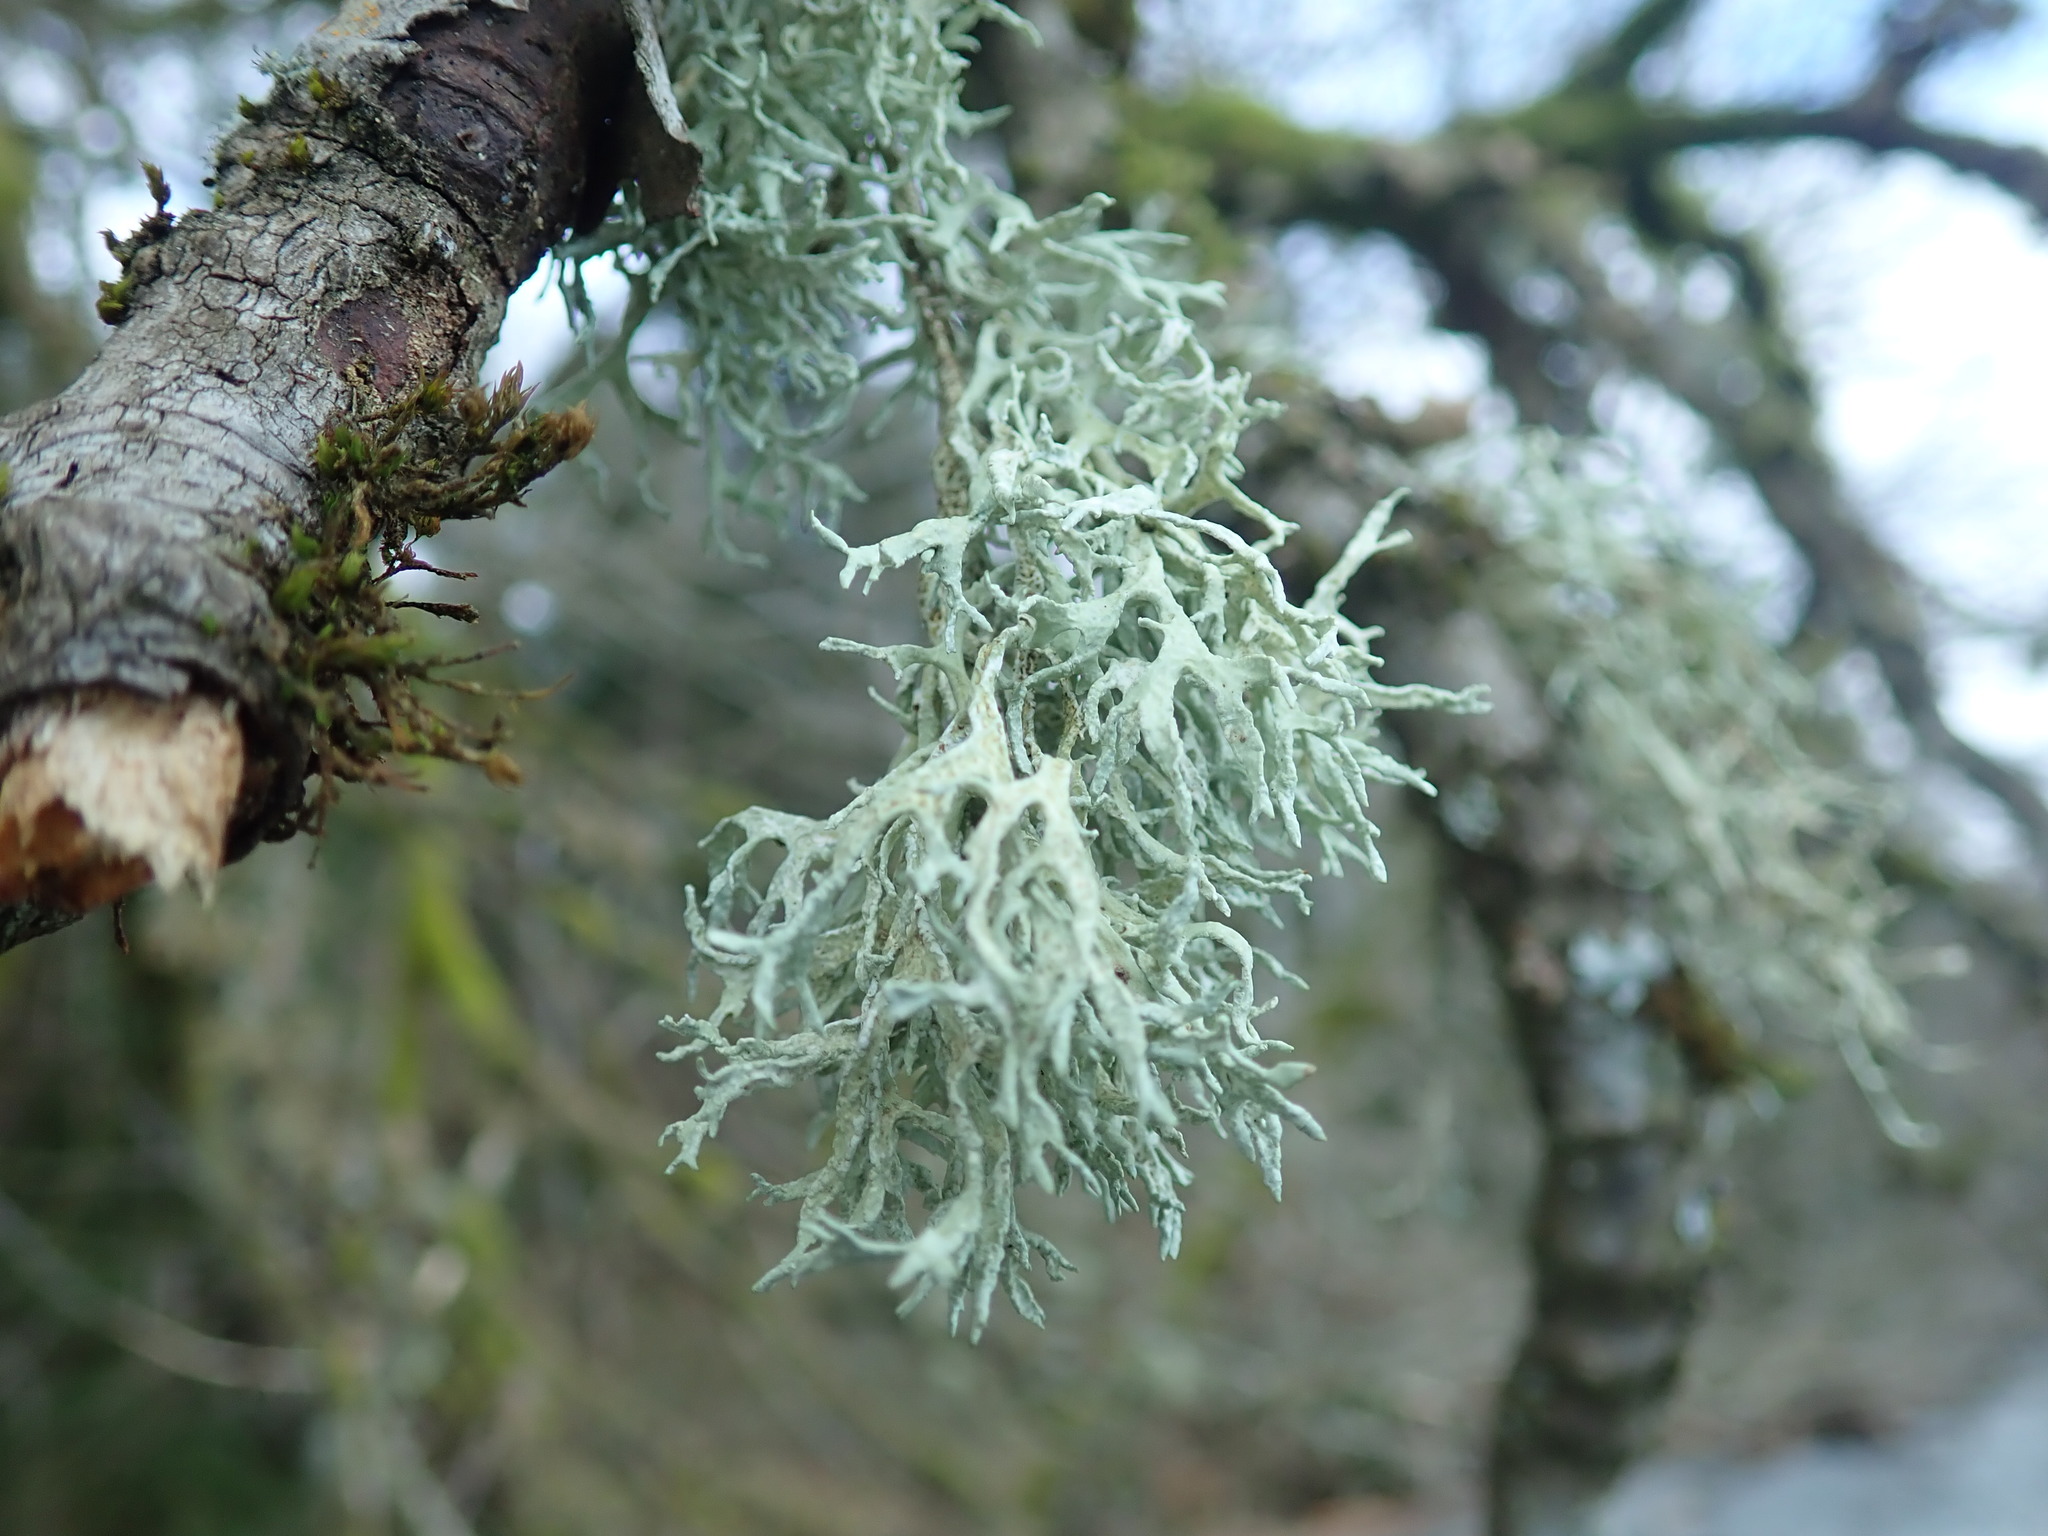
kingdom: Fungi
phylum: Ascomycota
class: Lecanoromycetes
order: Lecanorales
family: Ramalinaceae
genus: Ramalina
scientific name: Ramalina farinacea
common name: Farinose cartilage lichen
